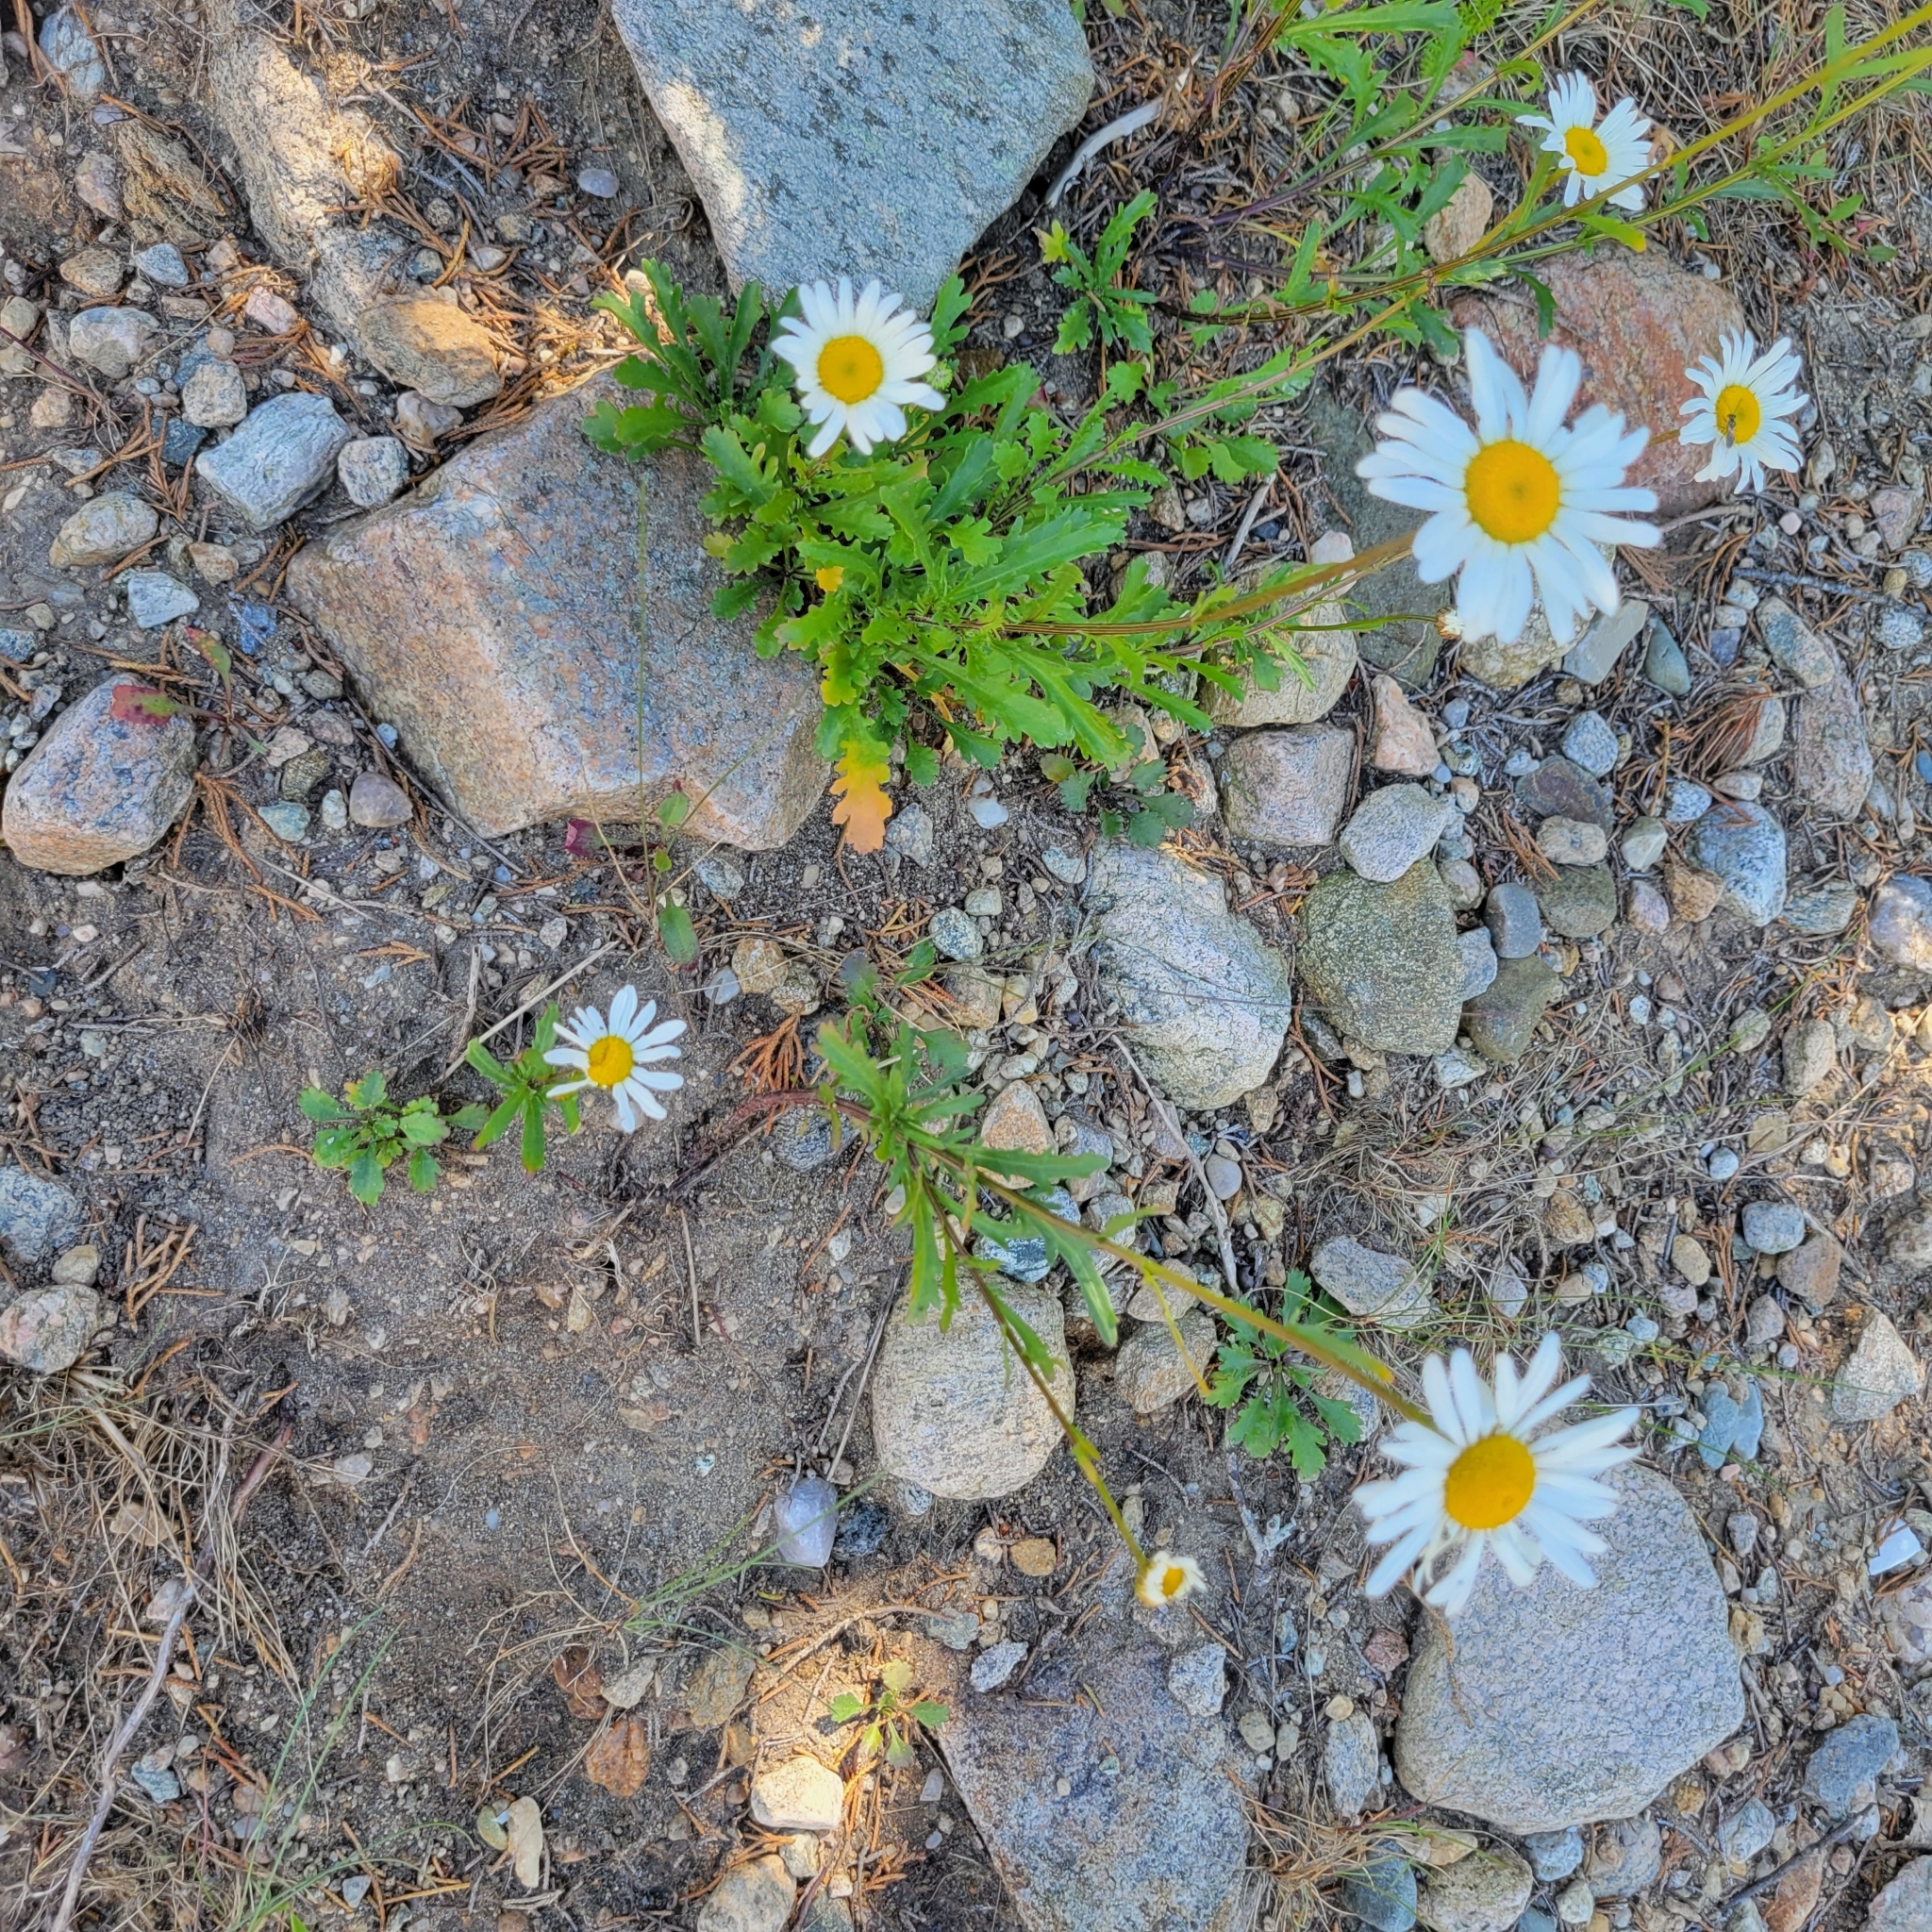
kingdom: Plantae
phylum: Tracheophyta
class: Magnoliopsida
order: Asterales
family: Asteraceae
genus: Leucanthemum
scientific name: Leucanthemum vulgare
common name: Oxeye daisy
